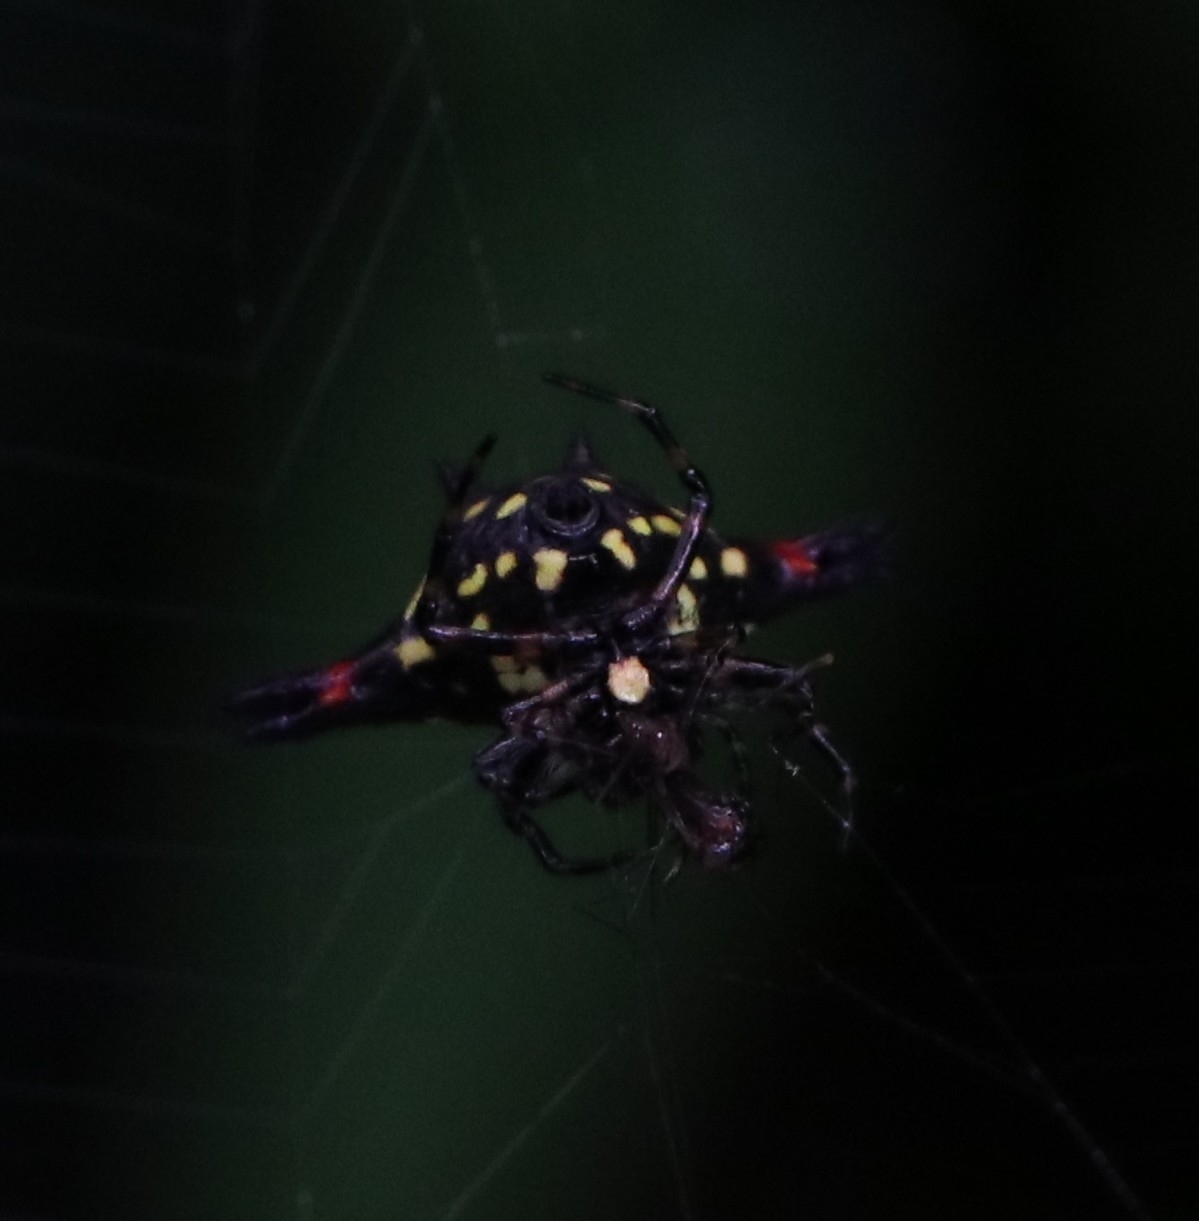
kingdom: Animalia
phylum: Arthropoda
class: Arachnida
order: Araneae
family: Araneidae
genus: Gasteracantha
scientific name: Gasteracantha geminata
